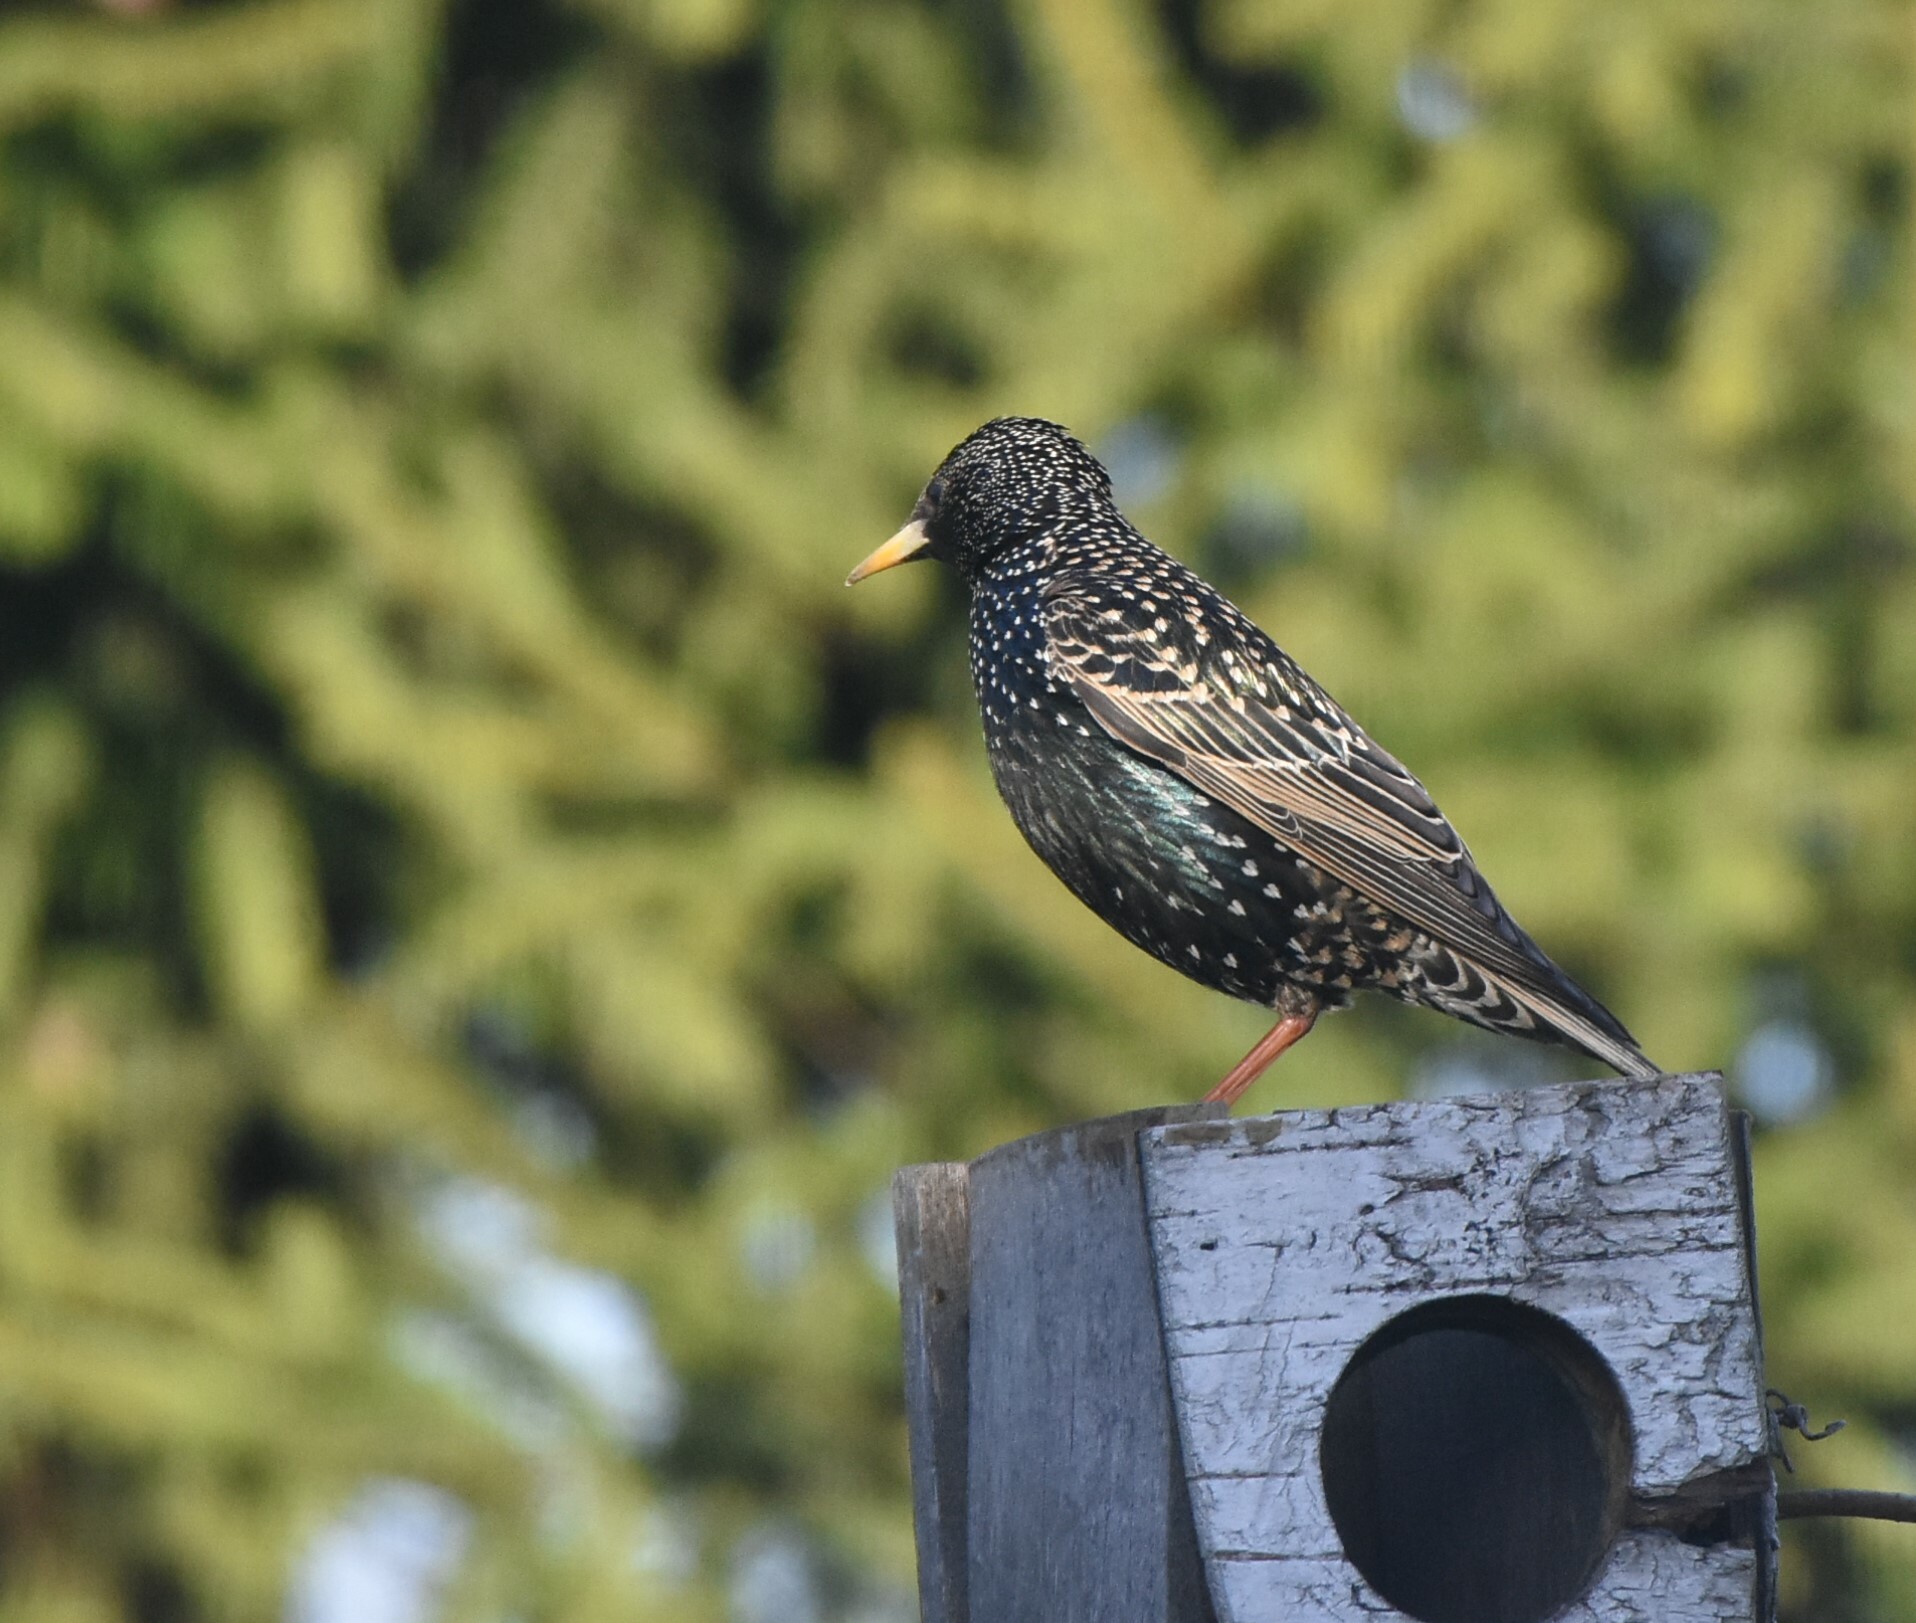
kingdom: Animalia
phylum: Chordata
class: Aves
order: Passeriformes
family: Sturnidae
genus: Sturnus
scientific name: Sturnus vulgaris
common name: Common starling
